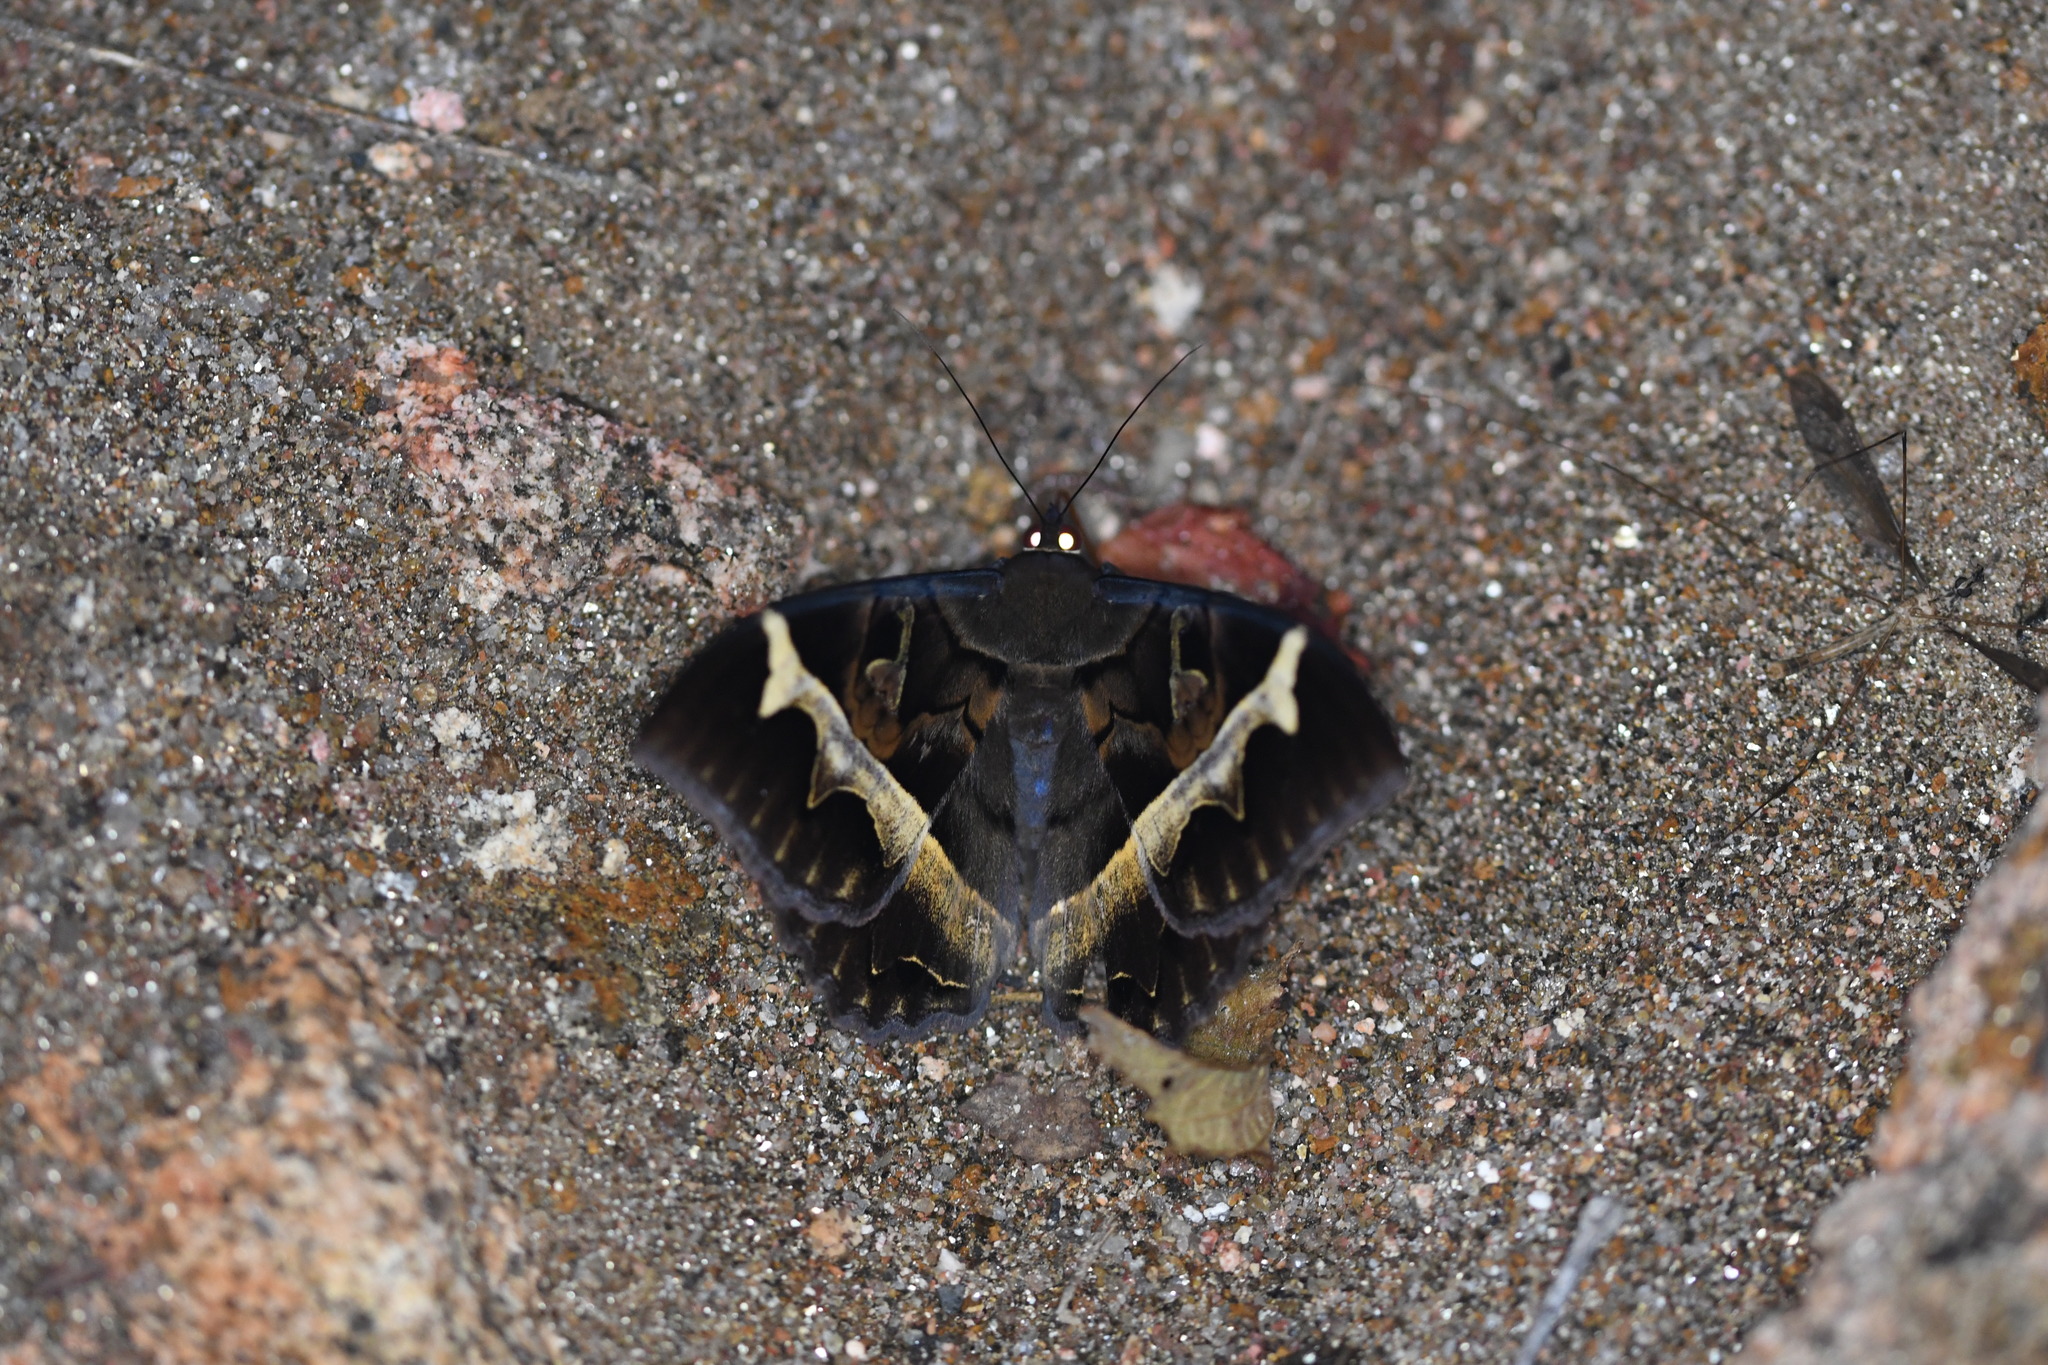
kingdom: Animalia
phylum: Arthropoda
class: Insecta
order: Lepidoptera
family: Erebidae
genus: Melipotis
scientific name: Melipotis perpendicularis
